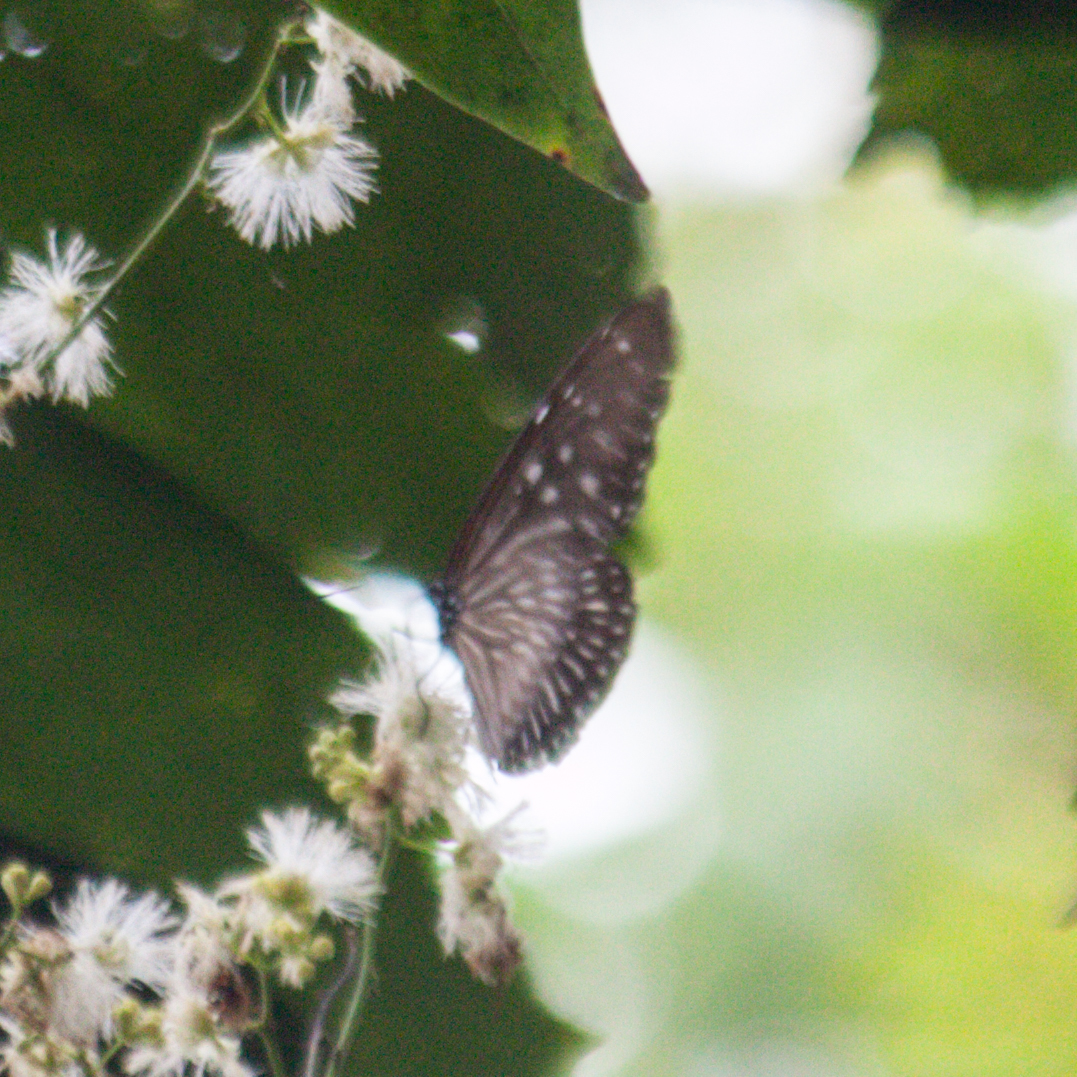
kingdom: Animalia
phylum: Arthropoda
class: Insecta
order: Lepidoptera
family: Nymphalidae
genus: Euploea
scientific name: Euploea mulciber
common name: Striped blue crow butterfly
